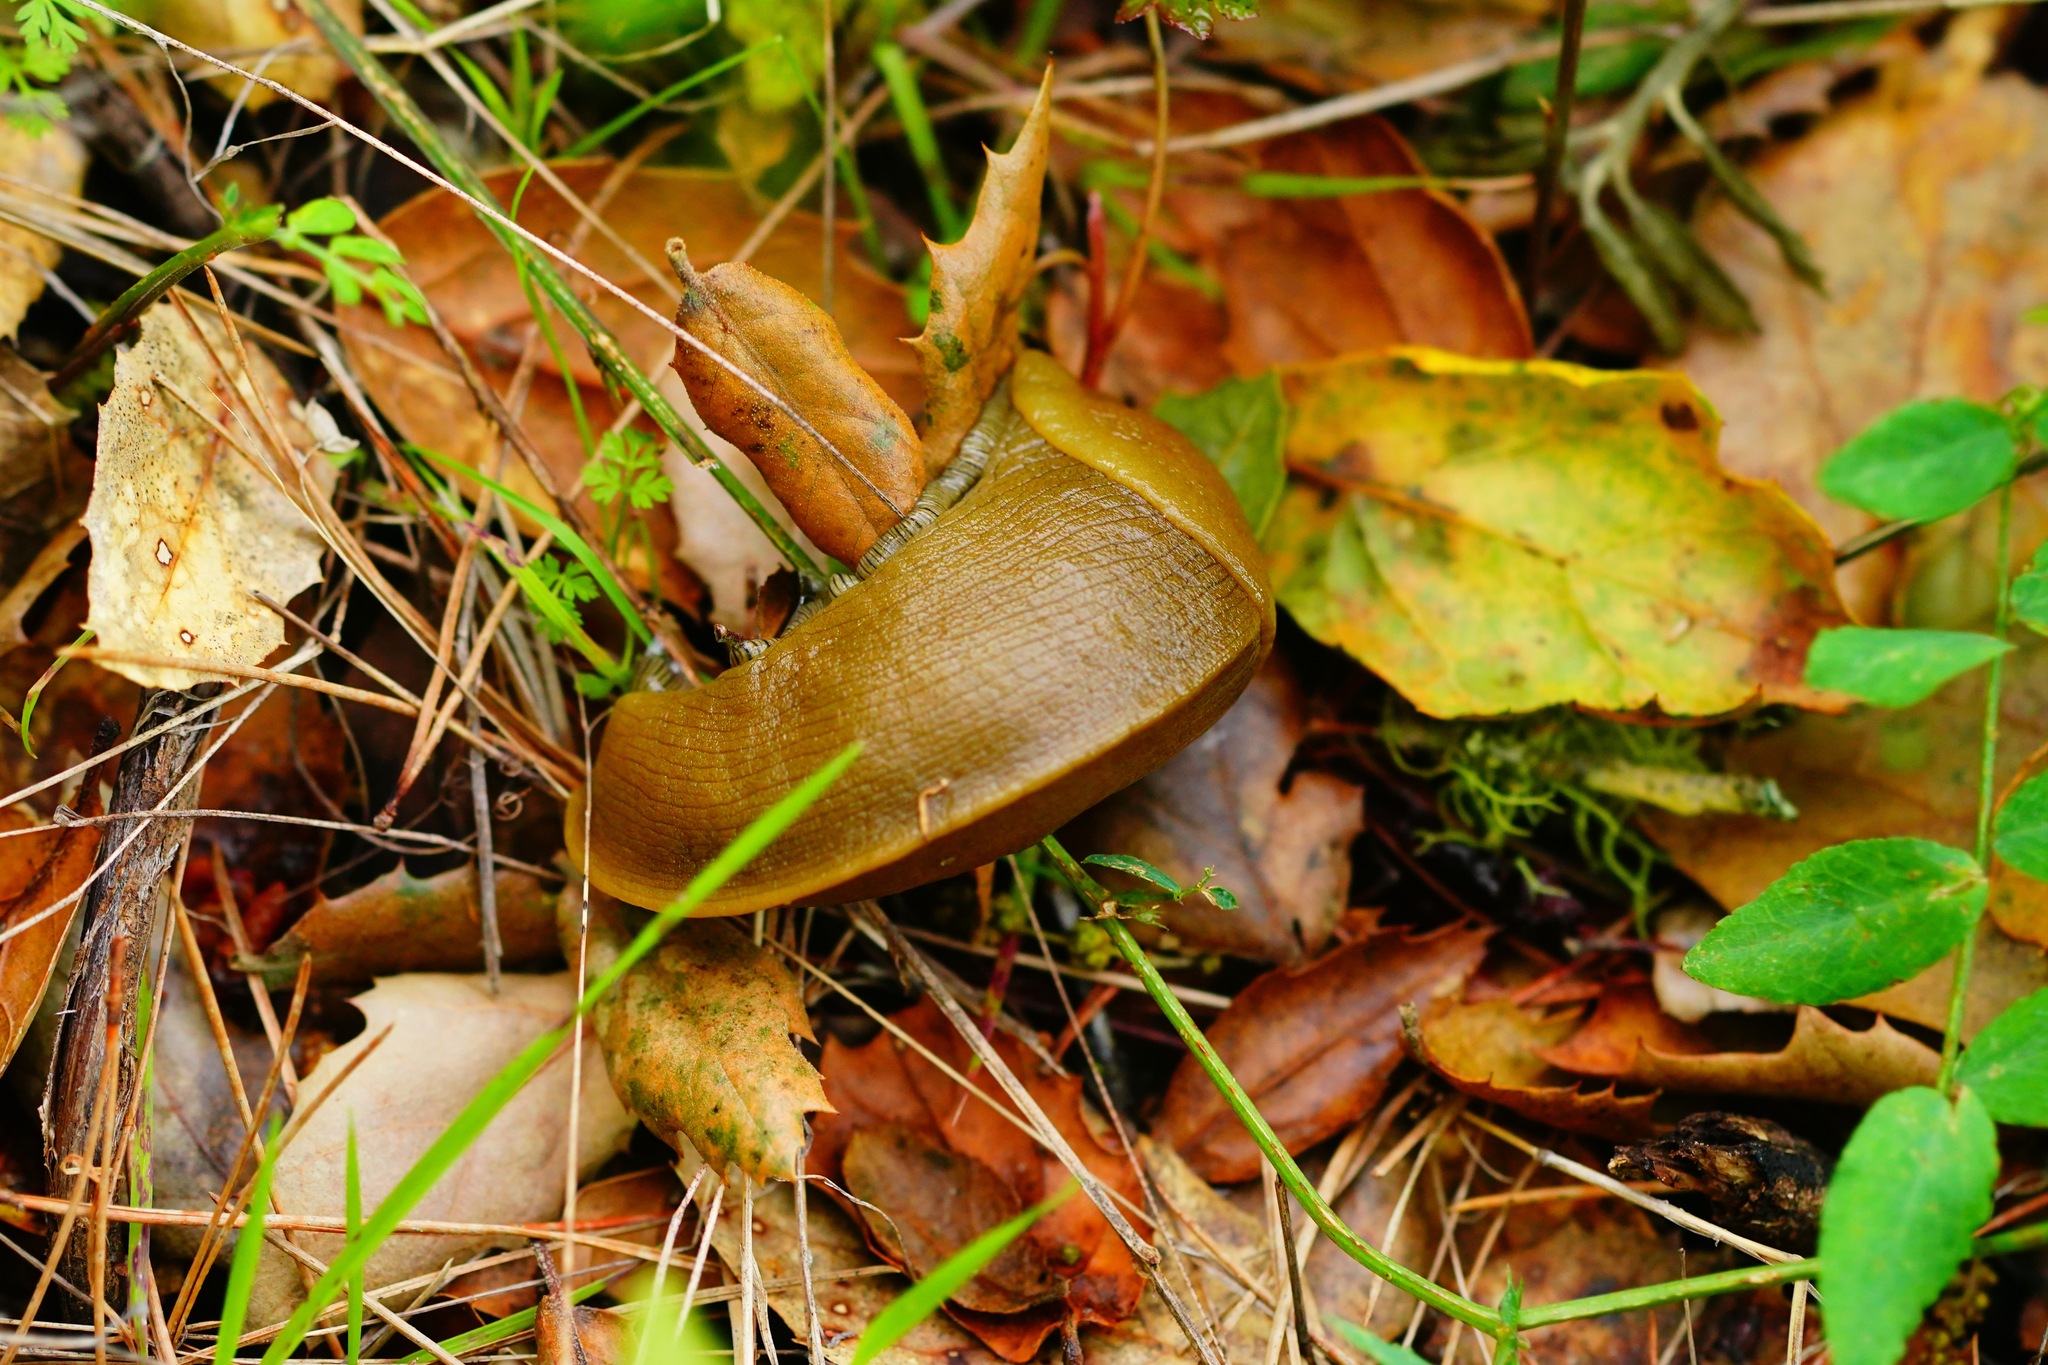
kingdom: Animalia
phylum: Mollusca
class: Gastropoda
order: Stylommatophora
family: Ariolimacidae
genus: Ariolimax
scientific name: Ariolimax buttoni
